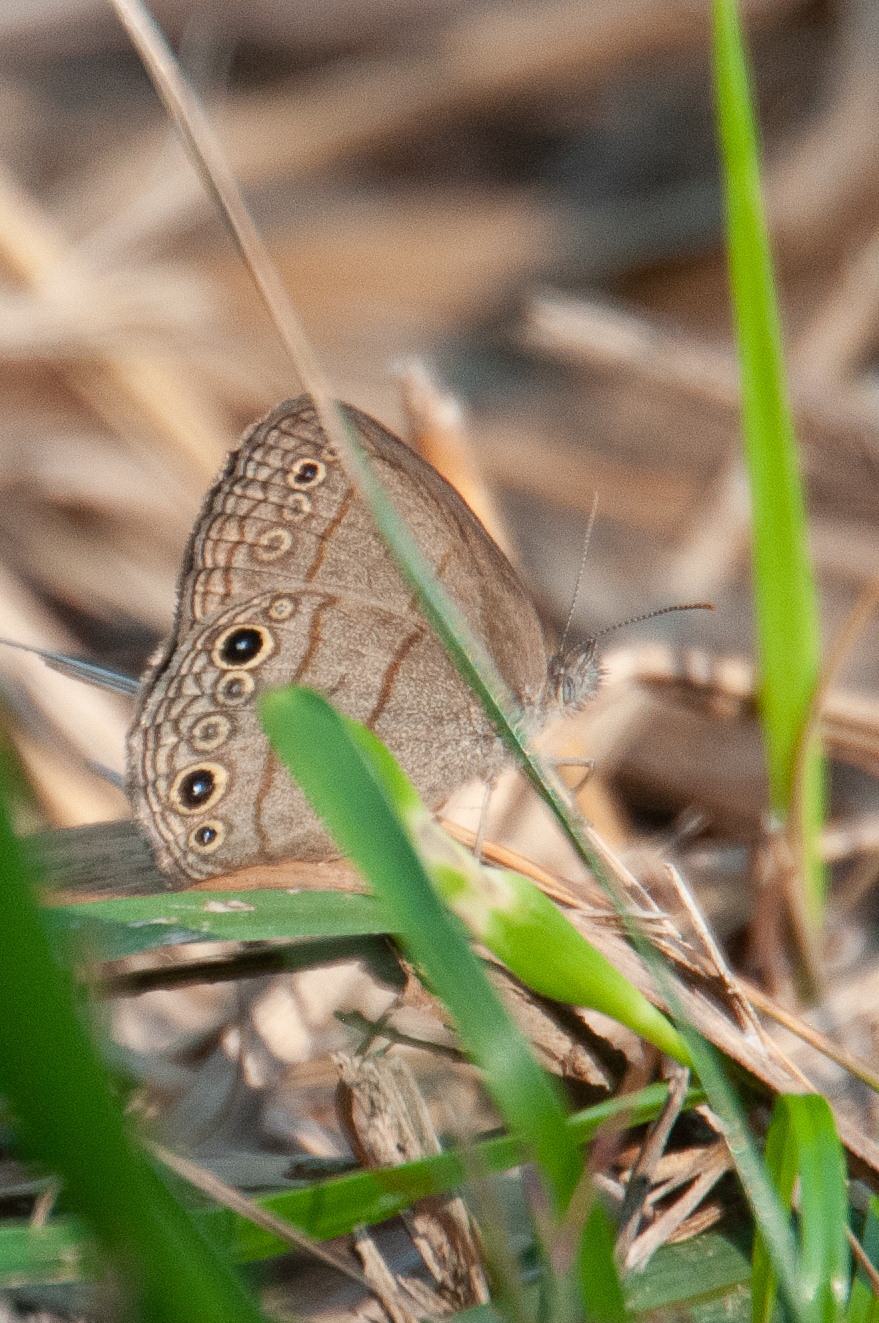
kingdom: Animalia
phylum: Arthropoda
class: Insecta
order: Lepidoptera
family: Nymphalidae
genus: Hermeuptychia
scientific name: Hermeuptychia hermes
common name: Hermes satyr
